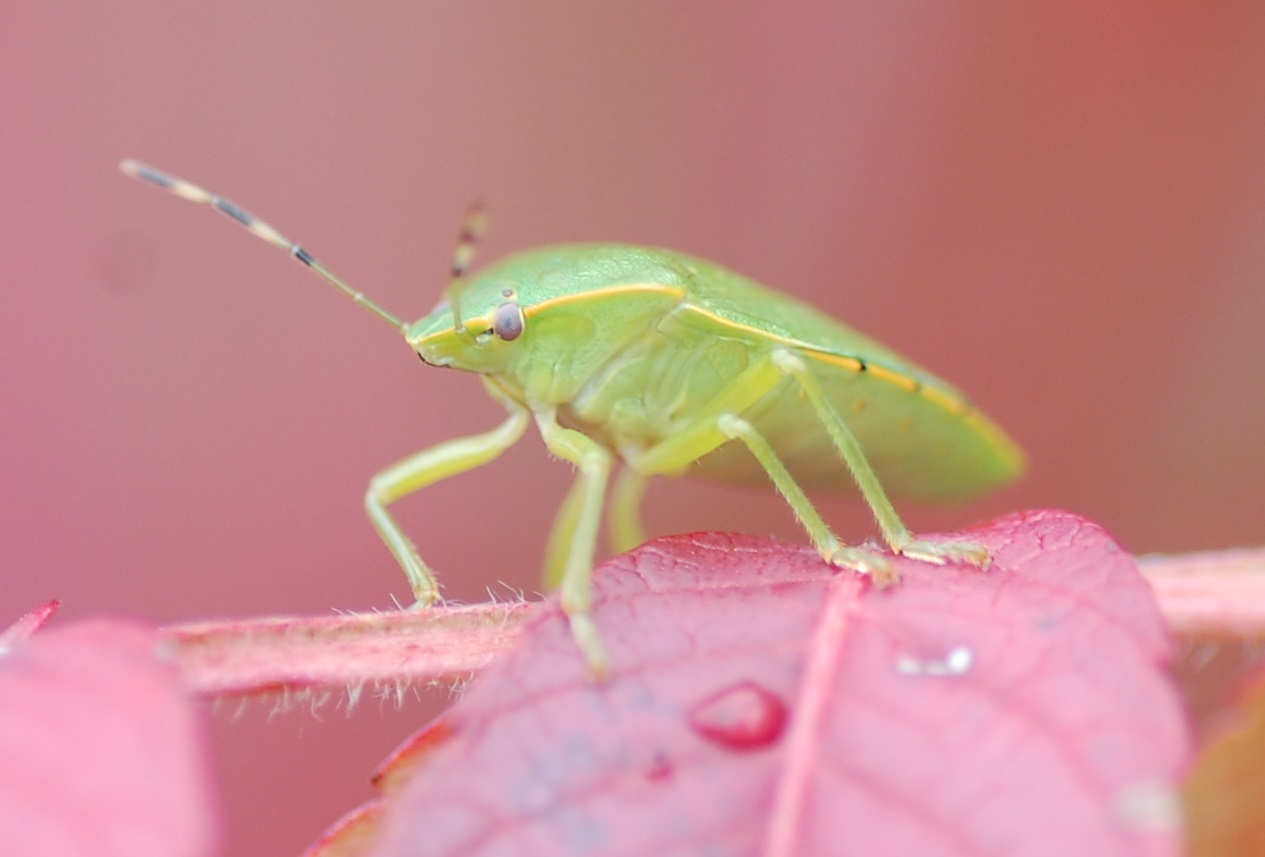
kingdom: Animalia
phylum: Arthropoda
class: Insecta
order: Hemiptera
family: Pentatomidae
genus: Chinavia
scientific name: Chinavia hilaris
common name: Green stink bug
